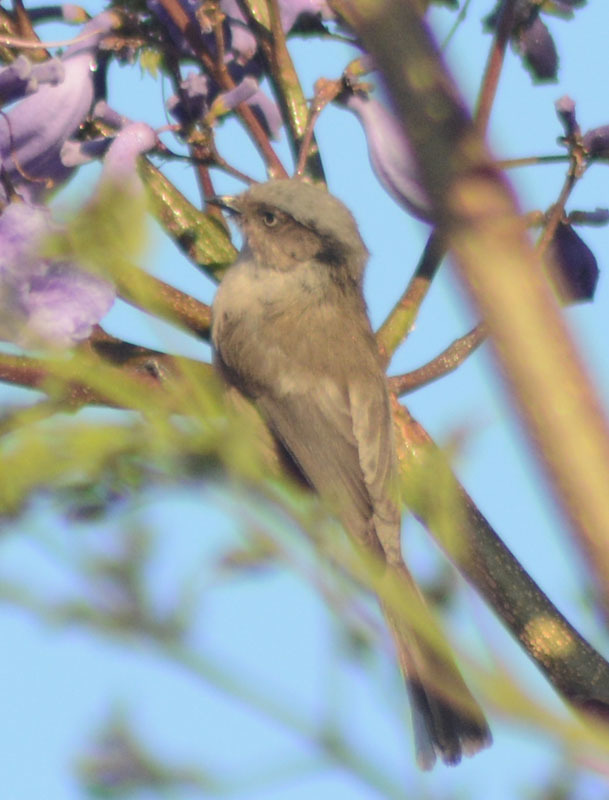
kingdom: Animalia
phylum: Chordata
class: Aves
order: Passeriformes
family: Aegithalidae
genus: Psaltriparus
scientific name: Psaltriparus minimus
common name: American bushtit
